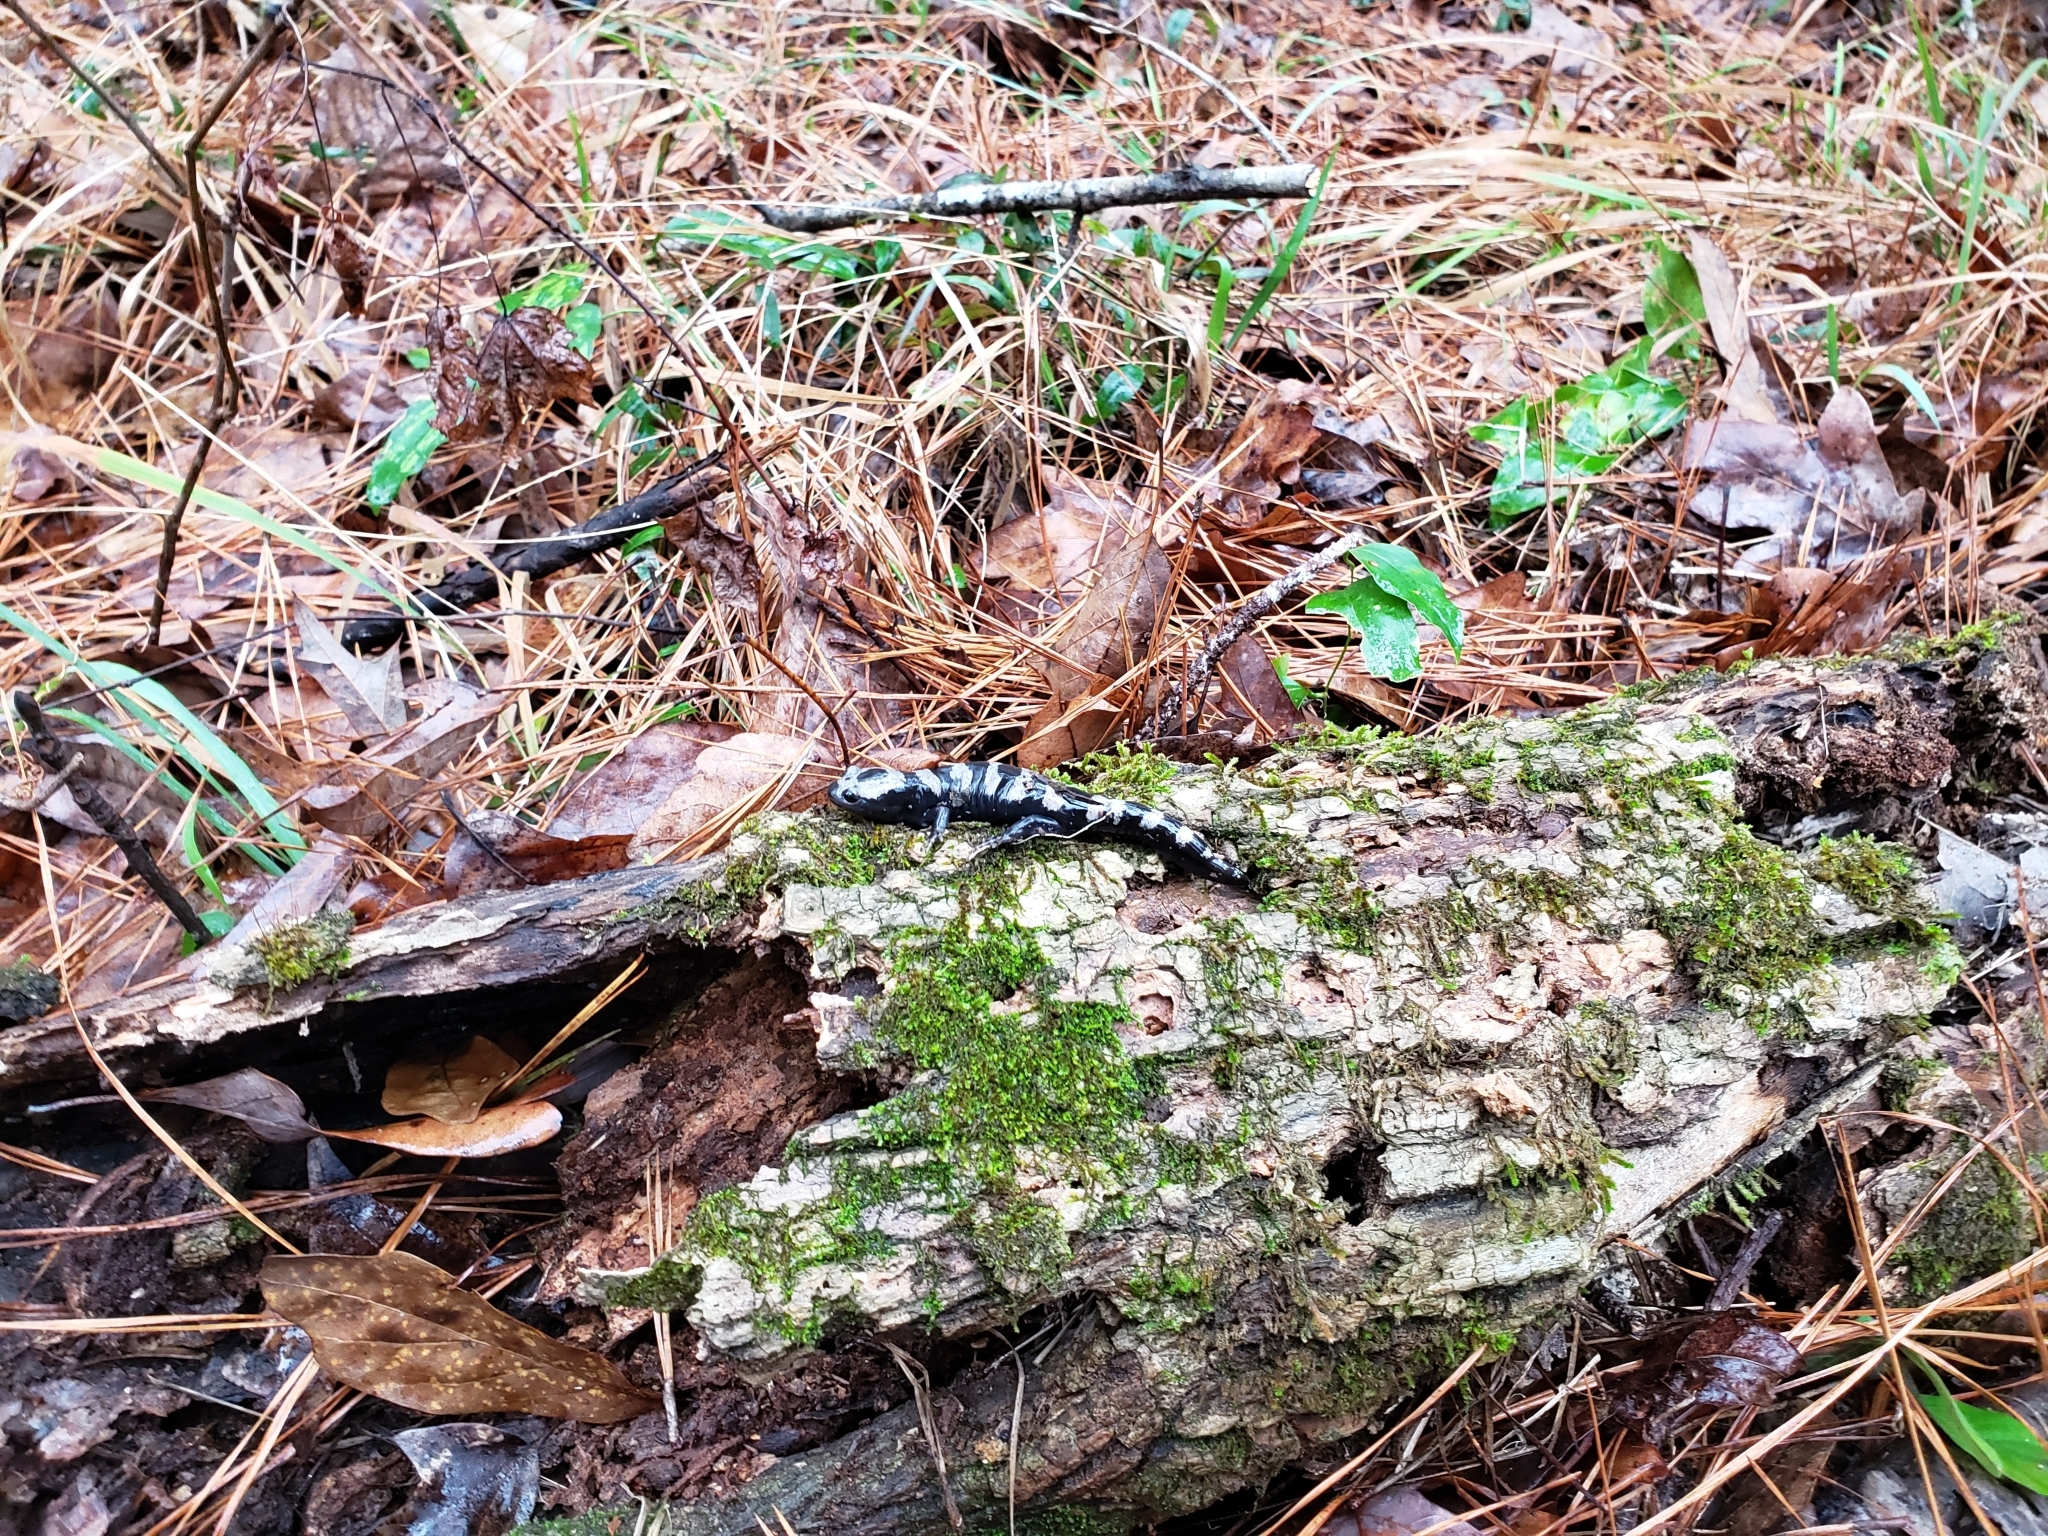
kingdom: Animalia
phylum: Chordata
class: Amphibia
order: Caudata
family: Ambystomatidae
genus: Ambystoma
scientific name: Ambystoma opacum
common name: Marbled salamander
